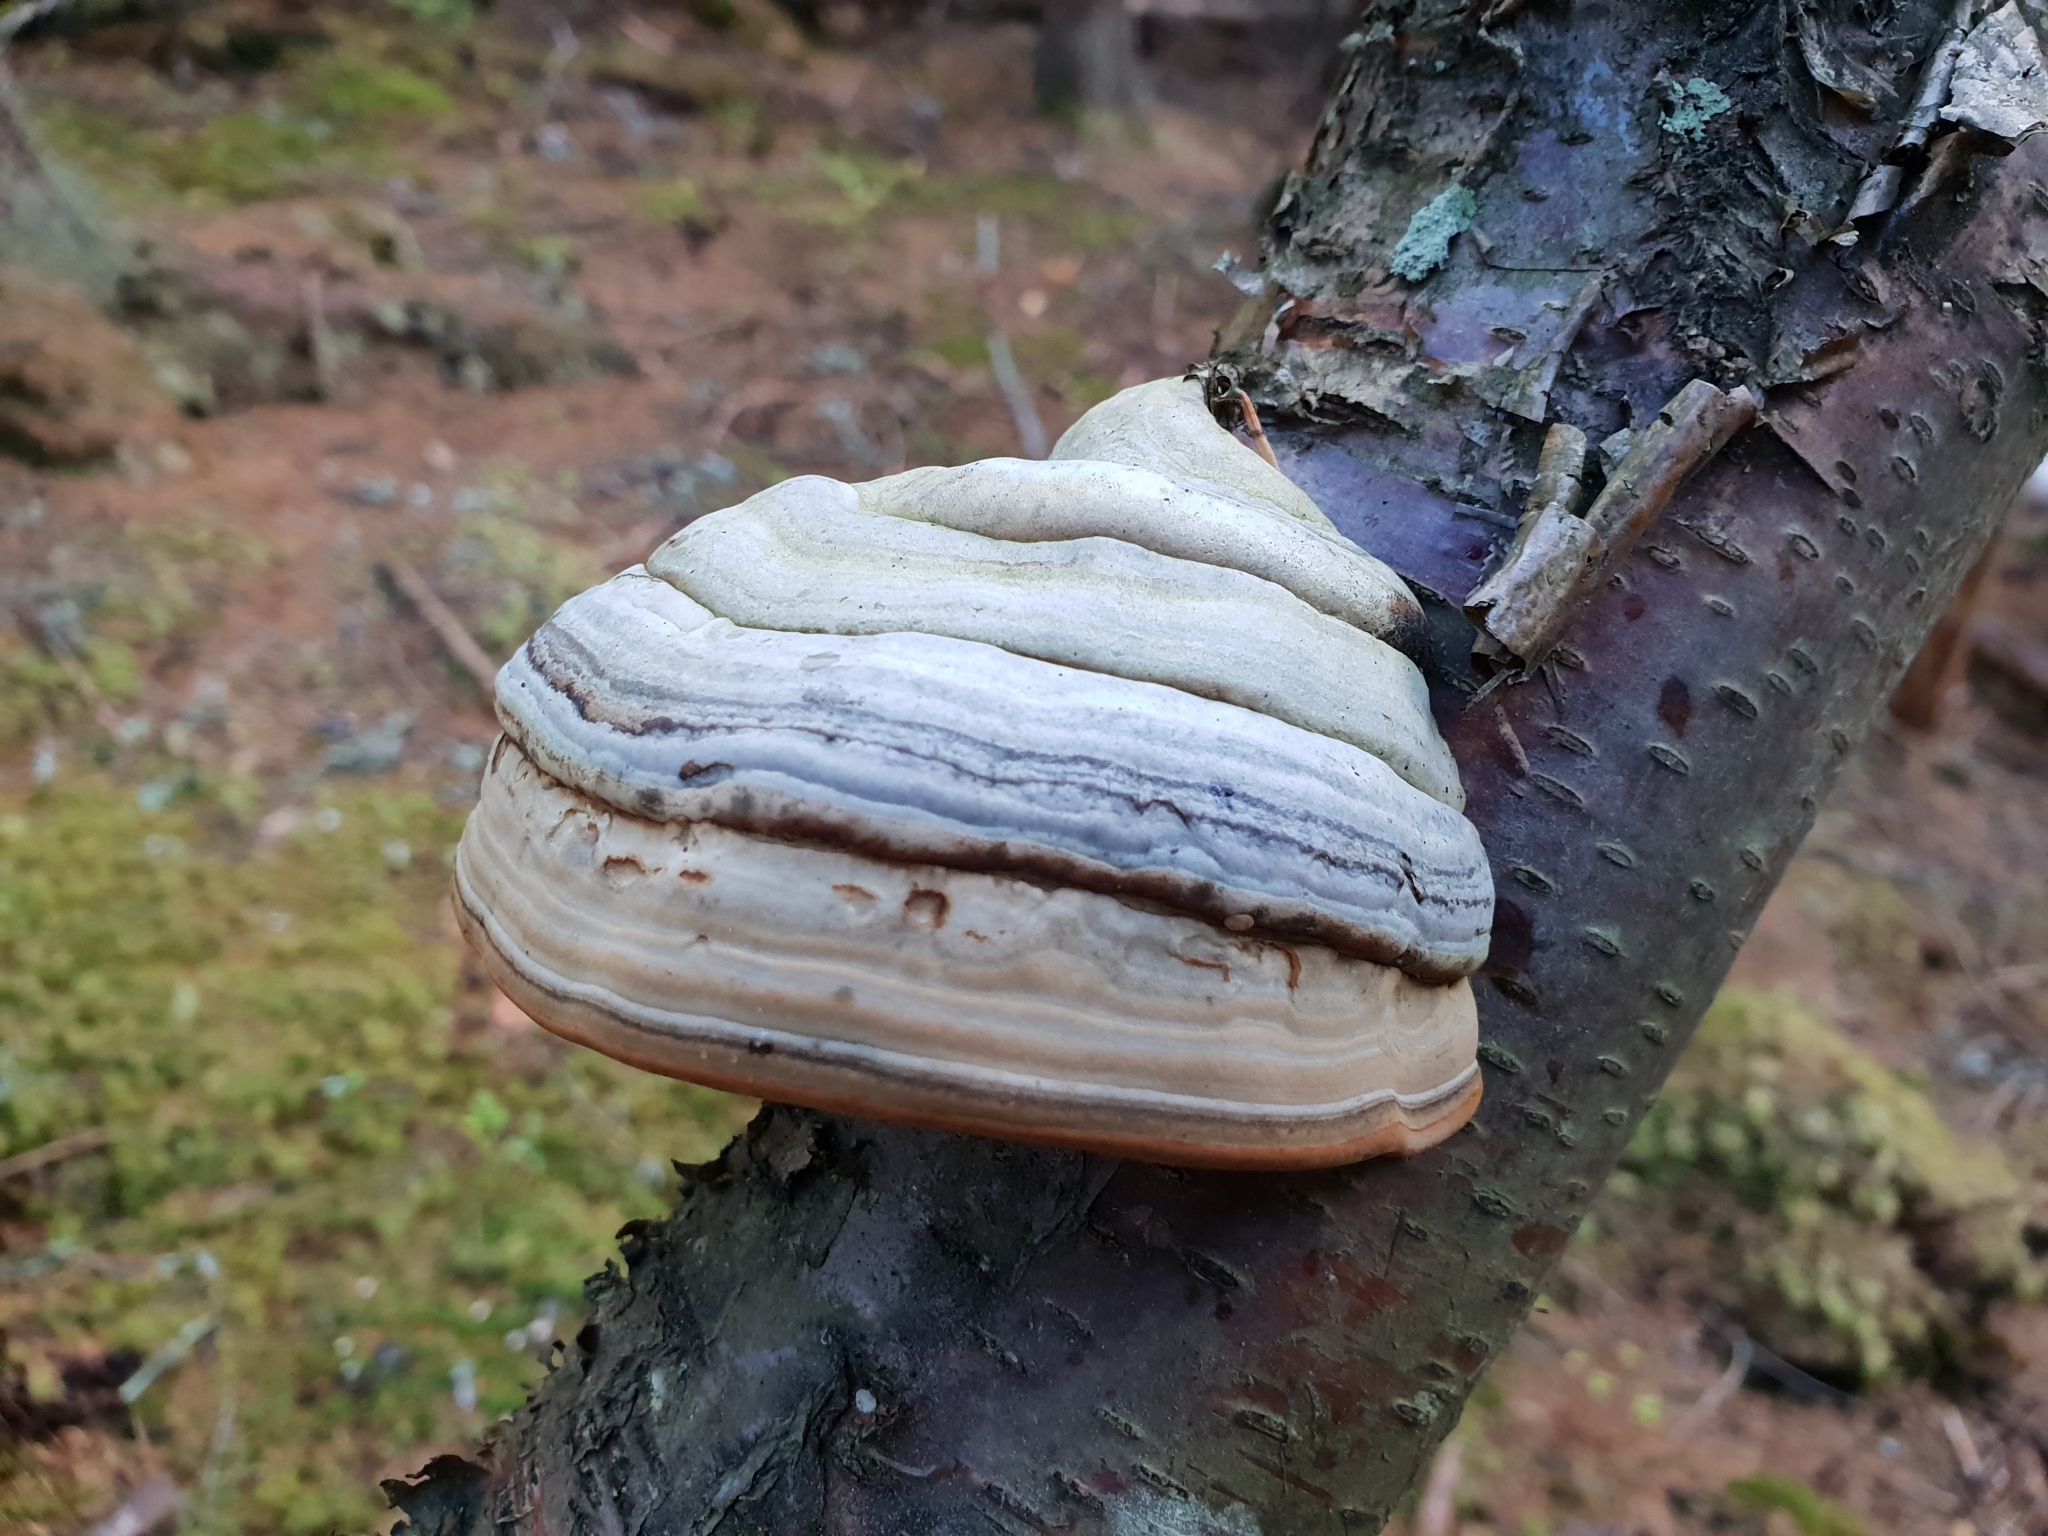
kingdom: Fungi
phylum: Basidiomycota
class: Agaricomycetes
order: Polyporales
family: Polyporaceae
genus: Fomes
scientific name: Fomes fomentarius
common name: Hoof fungus
